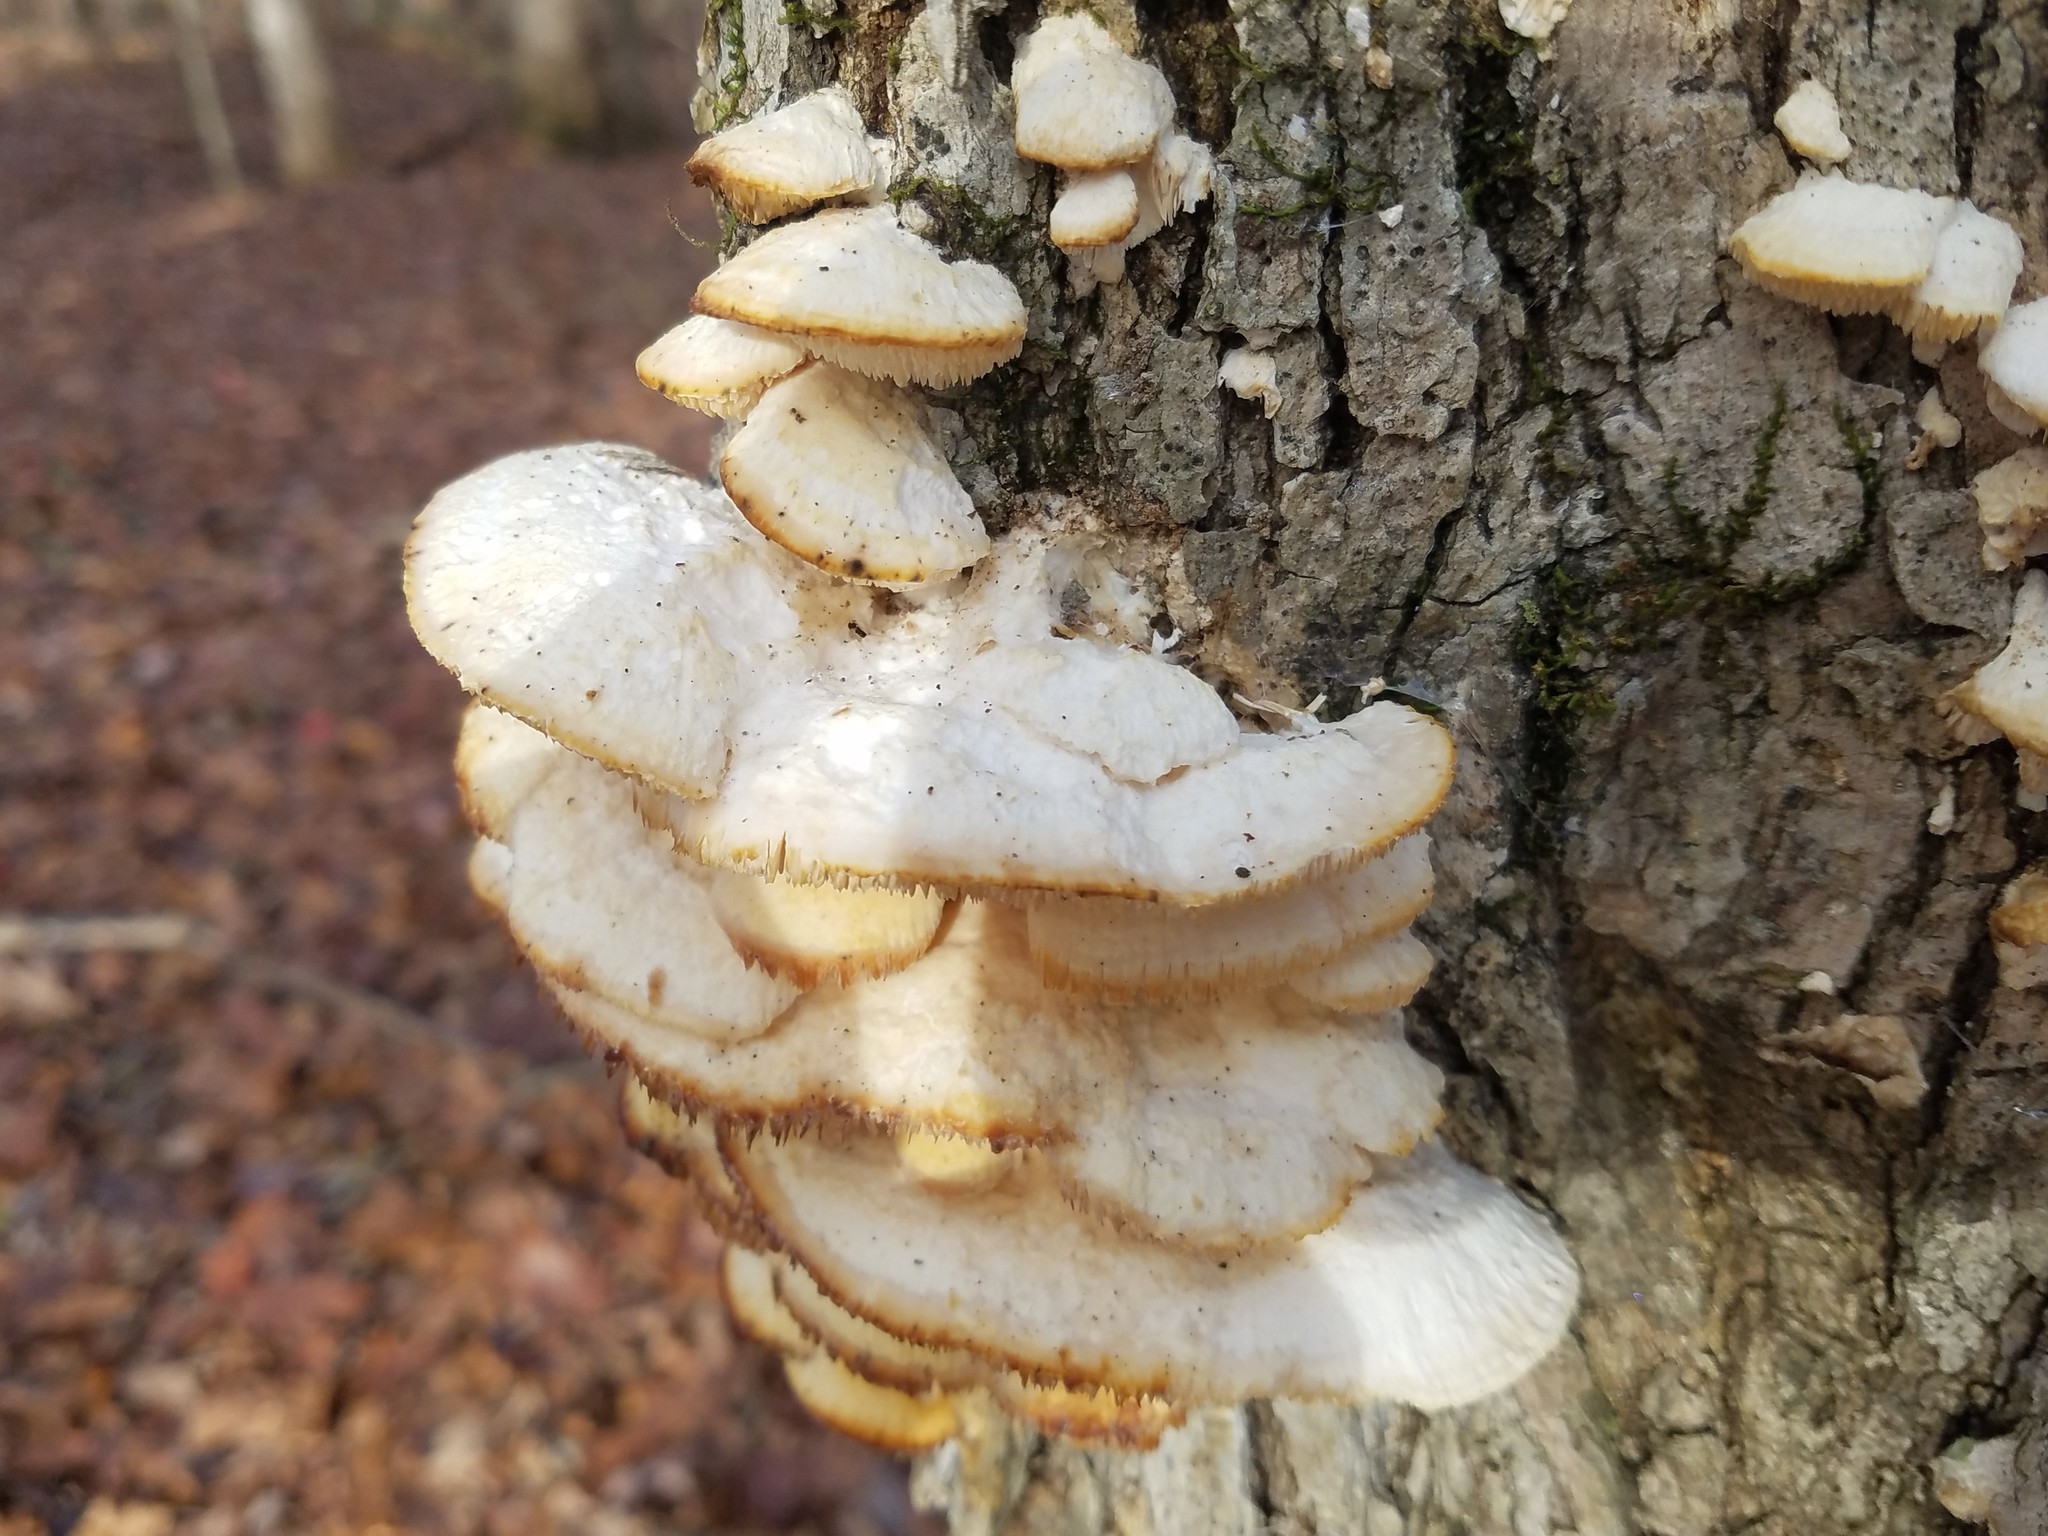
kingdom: Fungi
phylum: Basidiomycota
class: Agaricomycetes
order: Polyporales
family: Meruliaceae
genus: Irpiciporus
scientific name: Irpiciporus pachyodon
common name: Marshmallow polypore
